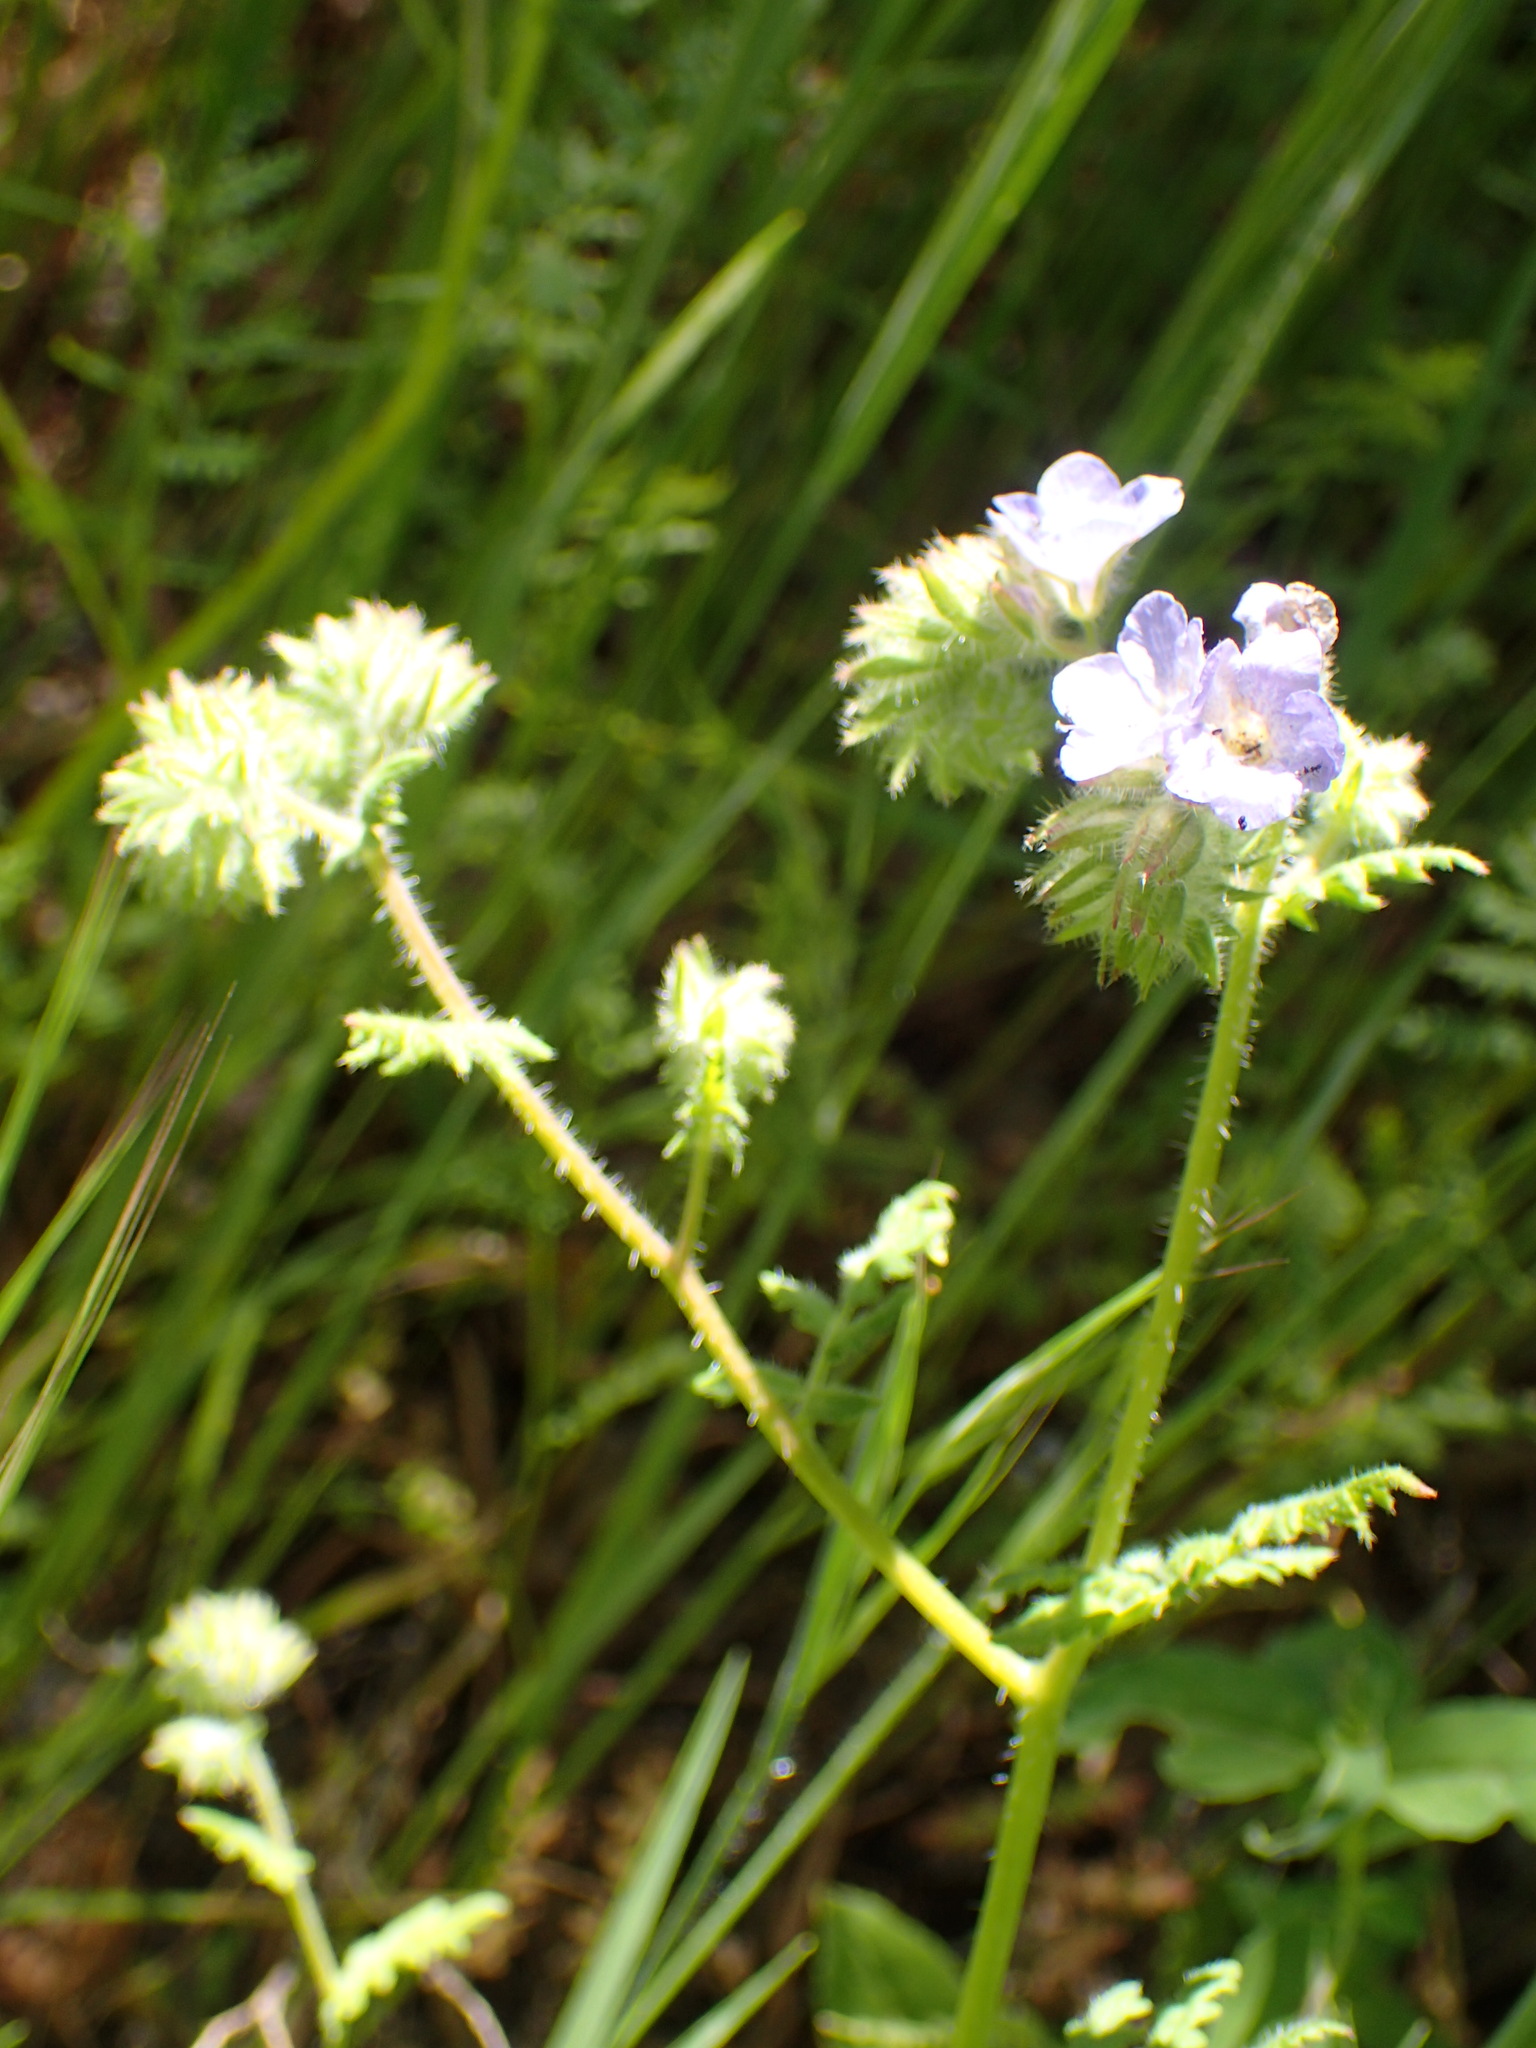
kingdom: Plantae
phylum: Tracheophyta
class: Magnoliopsida
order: Boraginales
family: Hydrophyllaceae
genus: Phacelia
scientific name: Phacelia distans
